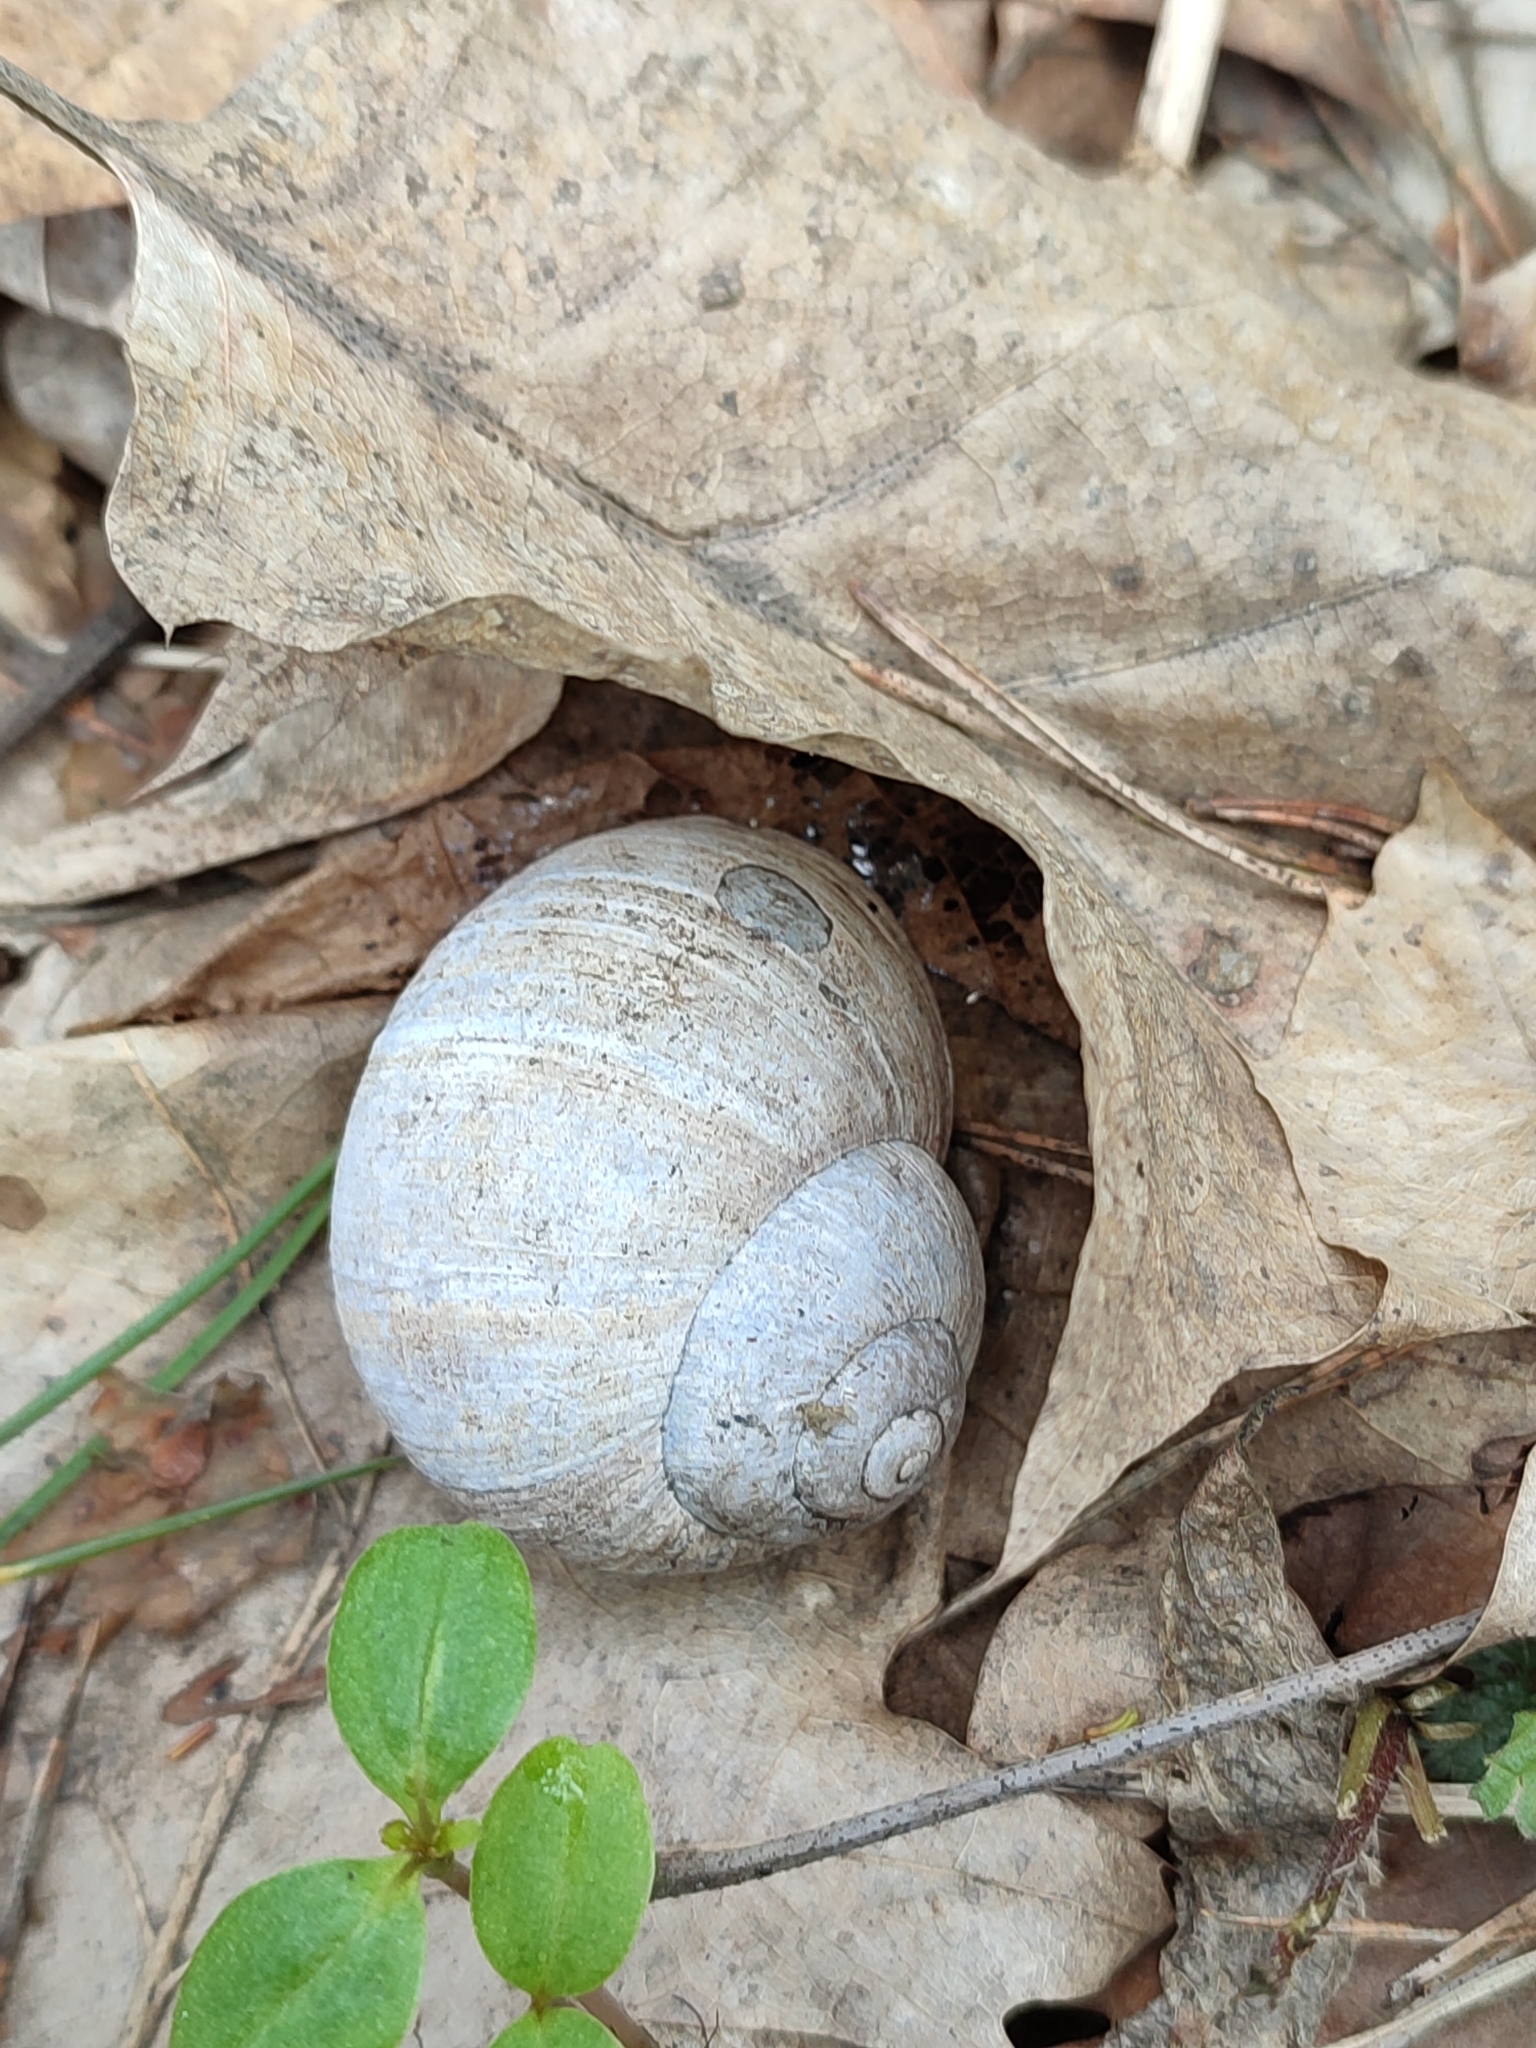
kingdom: Animalia
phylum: Mollusca
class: Gastropoda
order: Stylommatophora
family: Helicidae
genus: Helix
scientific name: Helix pomatia
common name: Roman snail
